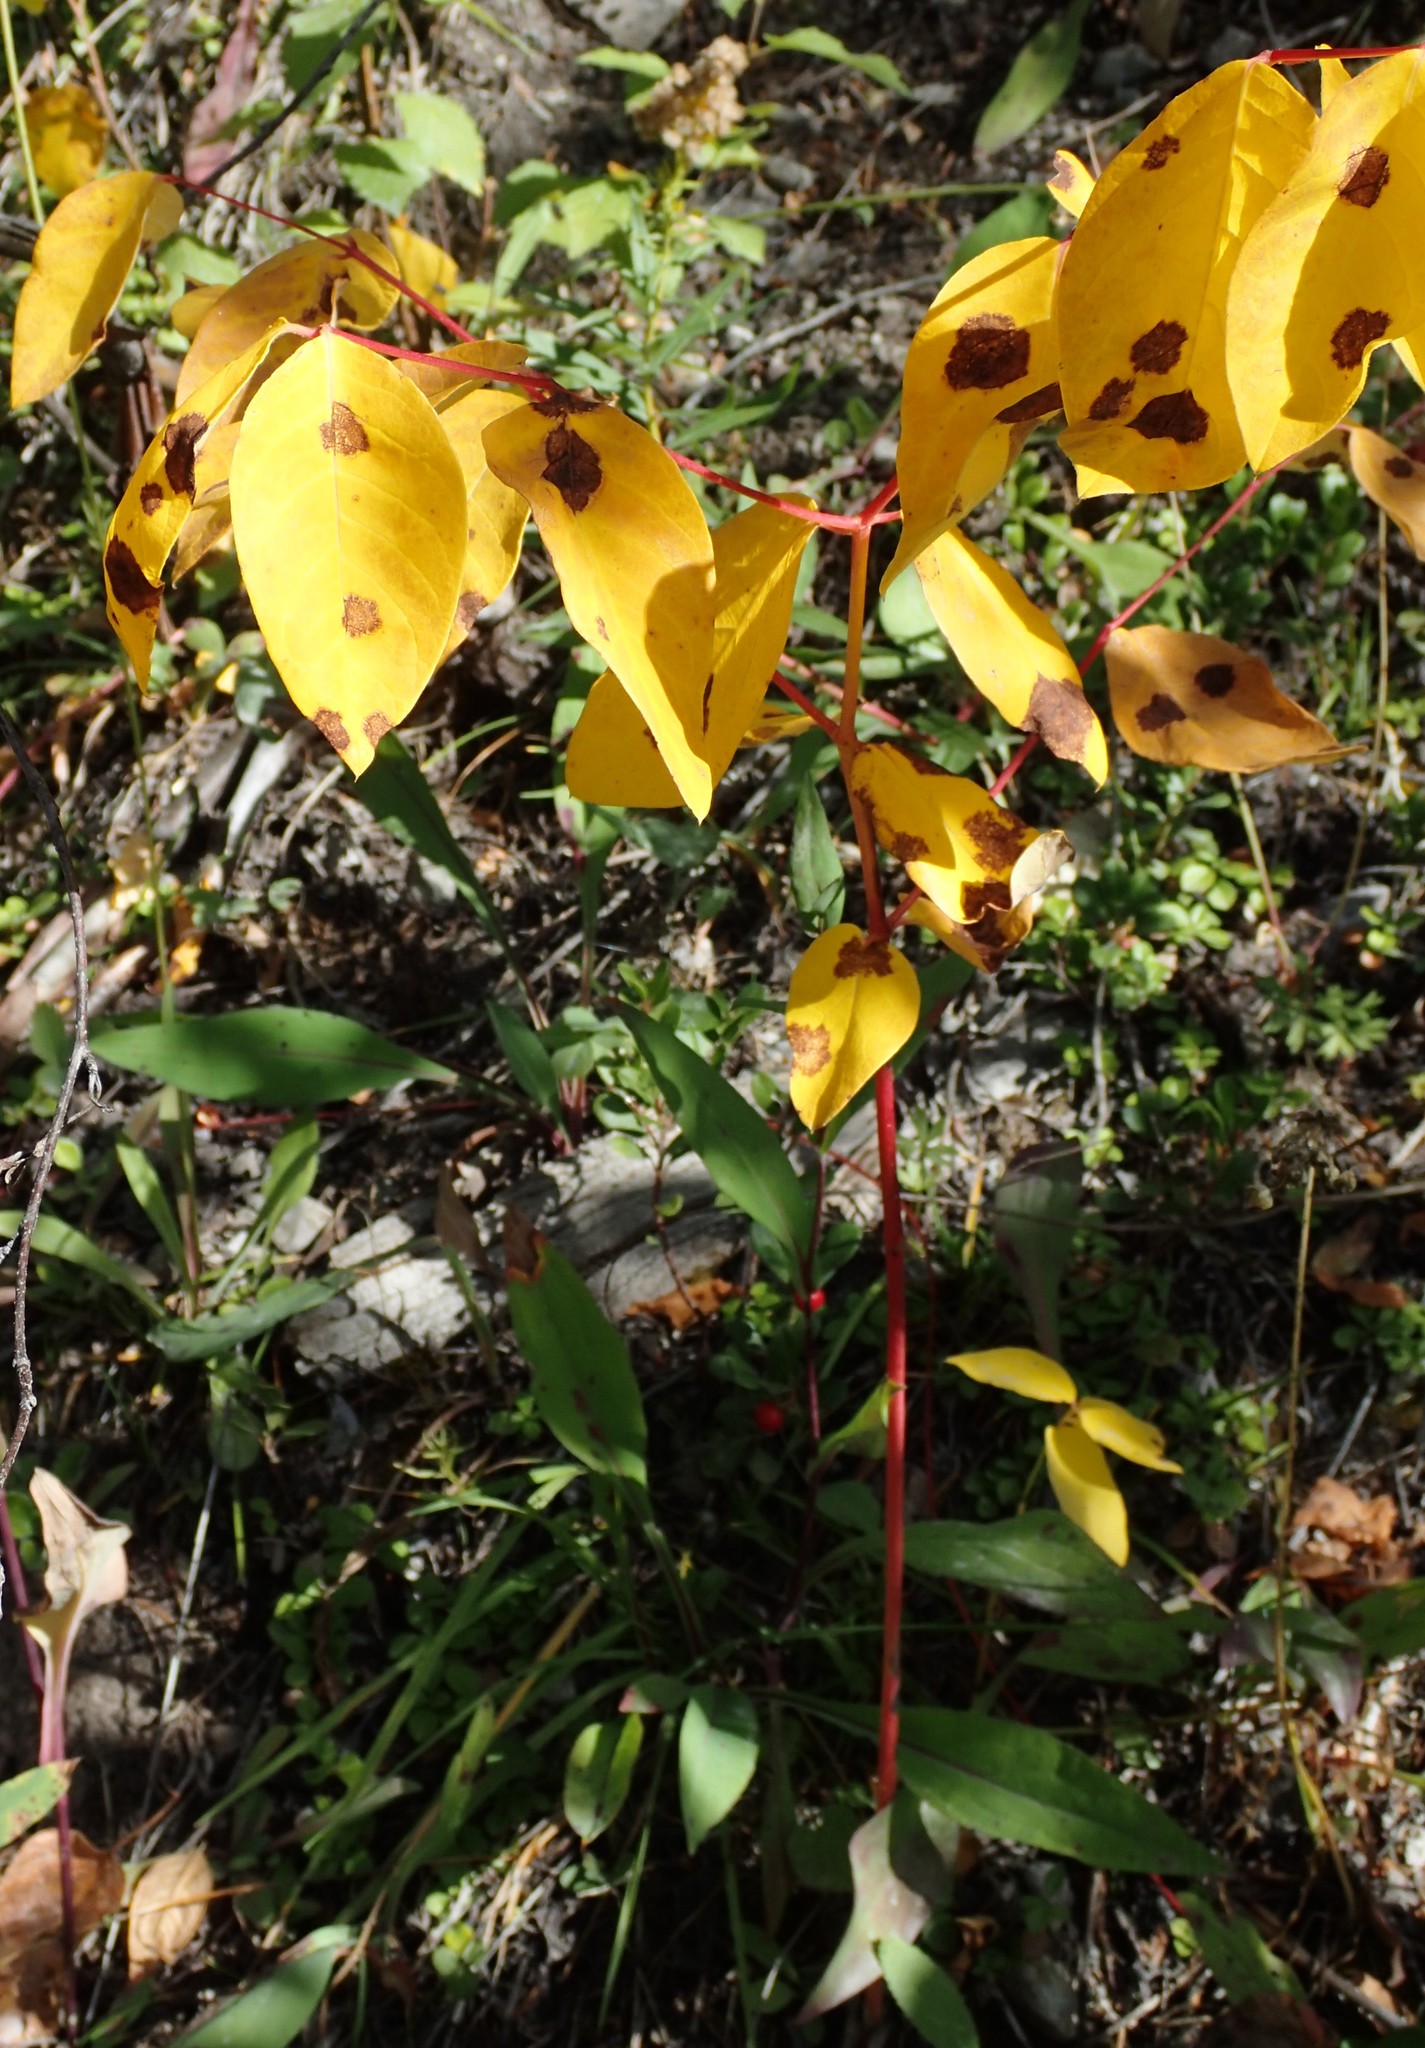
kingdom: Plantae
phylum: Tracheophyta
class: Magnoliopsida
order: Gentianales
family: Apocynaceae
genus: Apocynum
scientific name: Apocynum androsaemifolium
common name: Spreading dogbane
